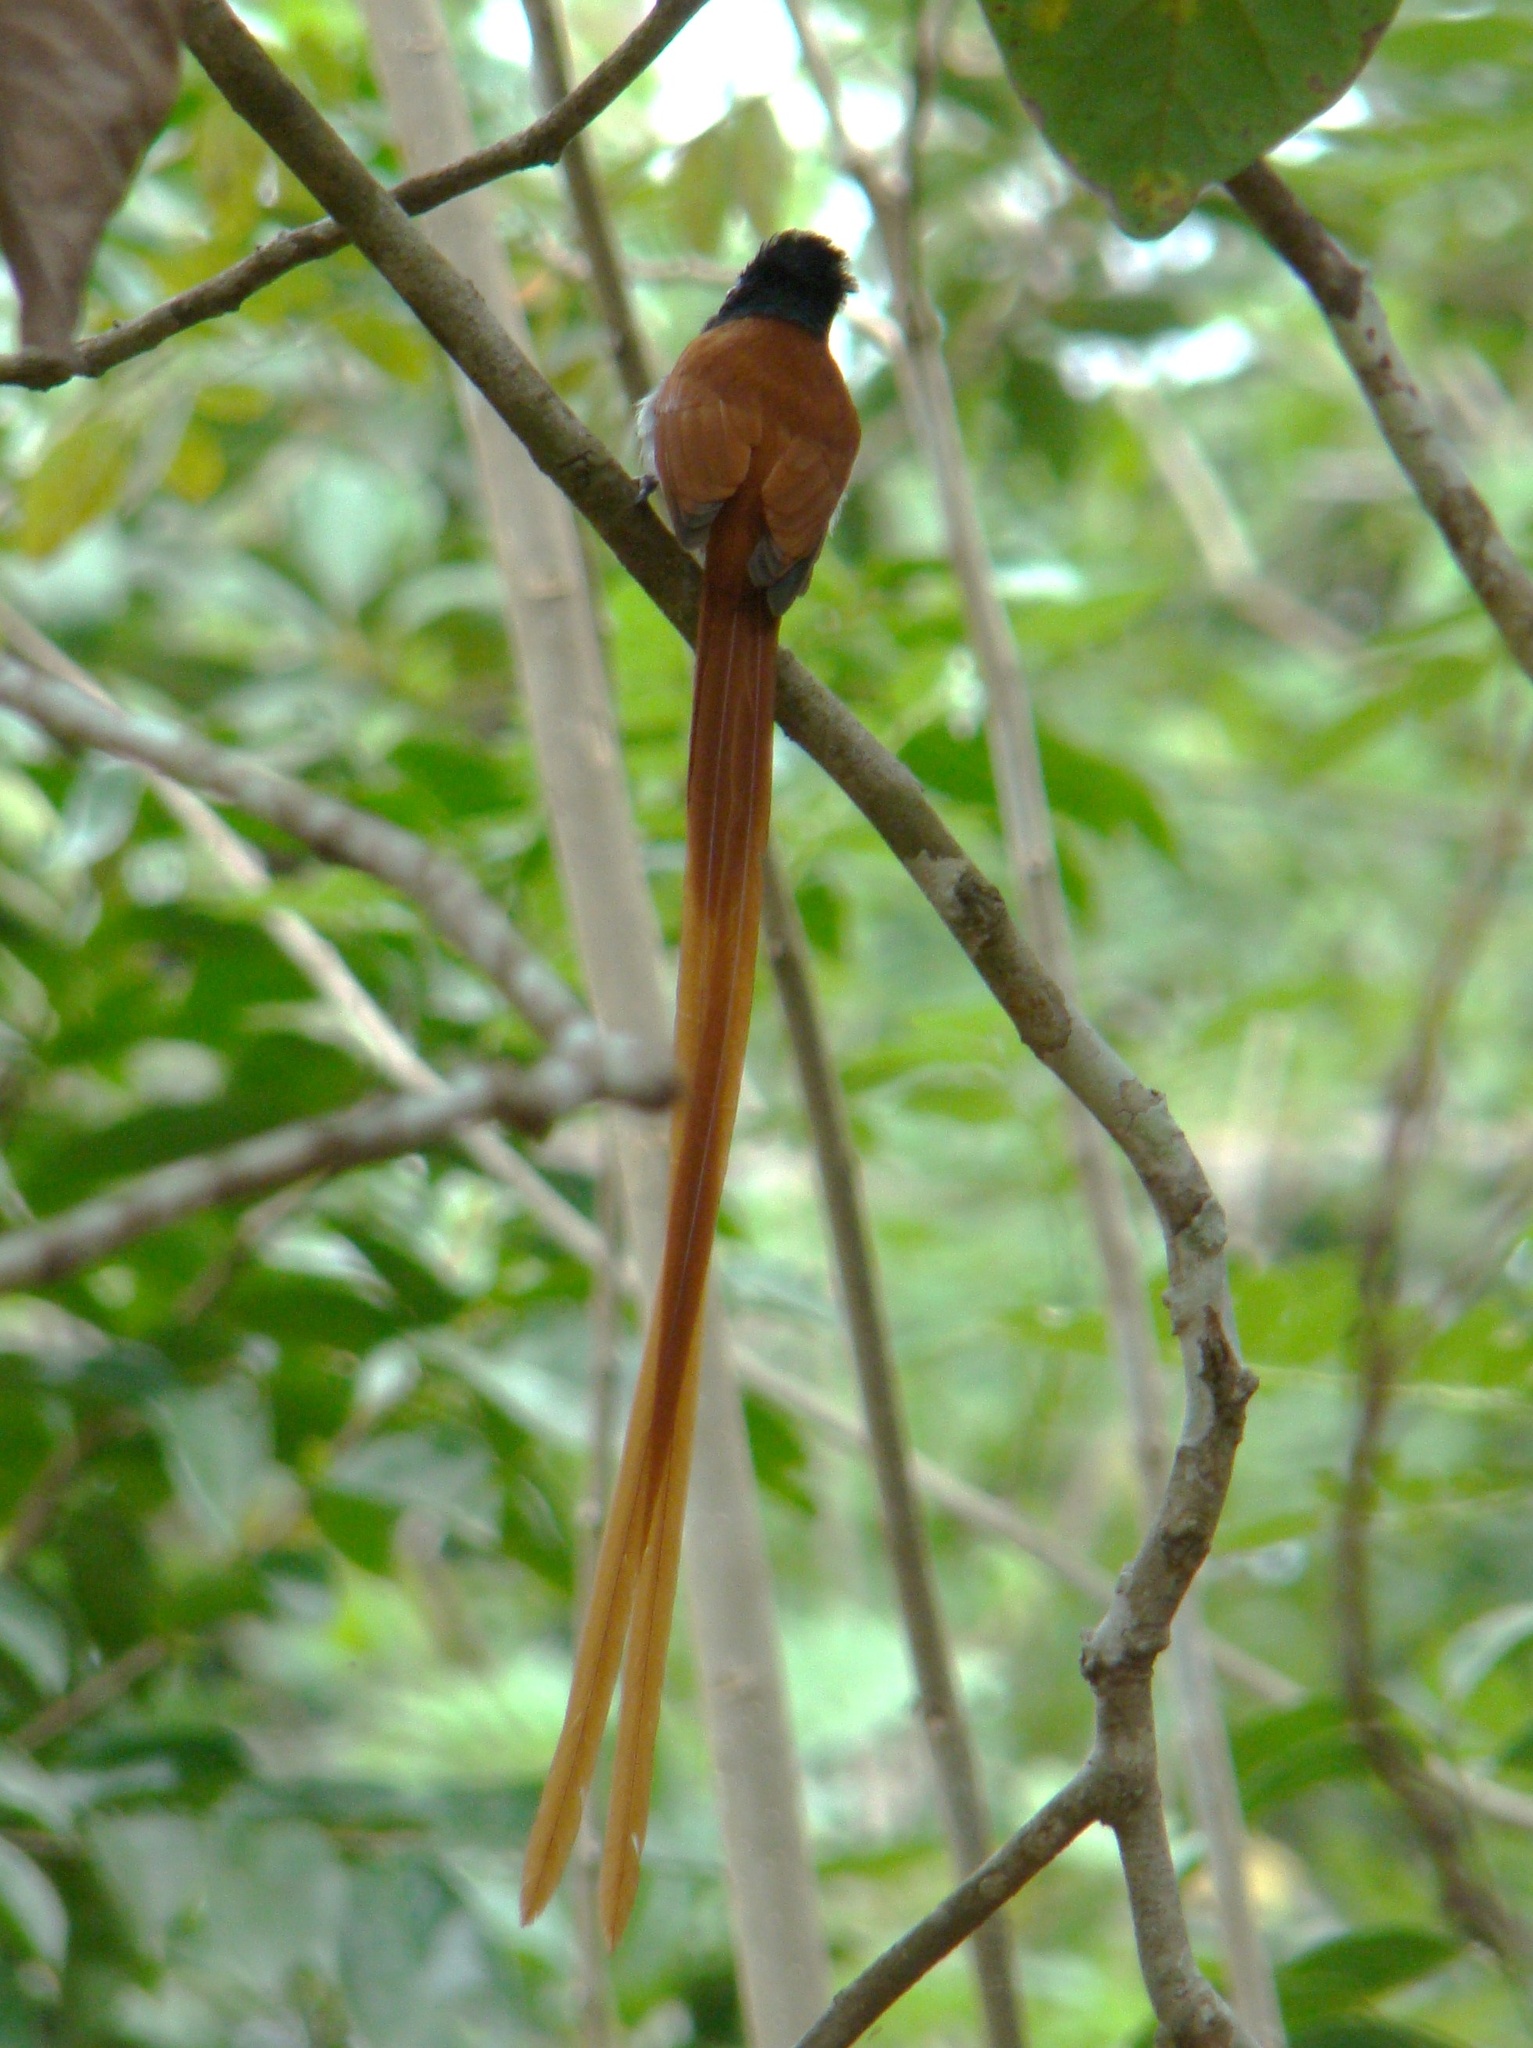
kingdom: Animalia
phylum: Chordata
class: Aves
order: Passeriformes
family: Monarchidae
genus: Terpsiphone
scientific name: Terpsiphone viridis
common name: African paradise flycatcher
